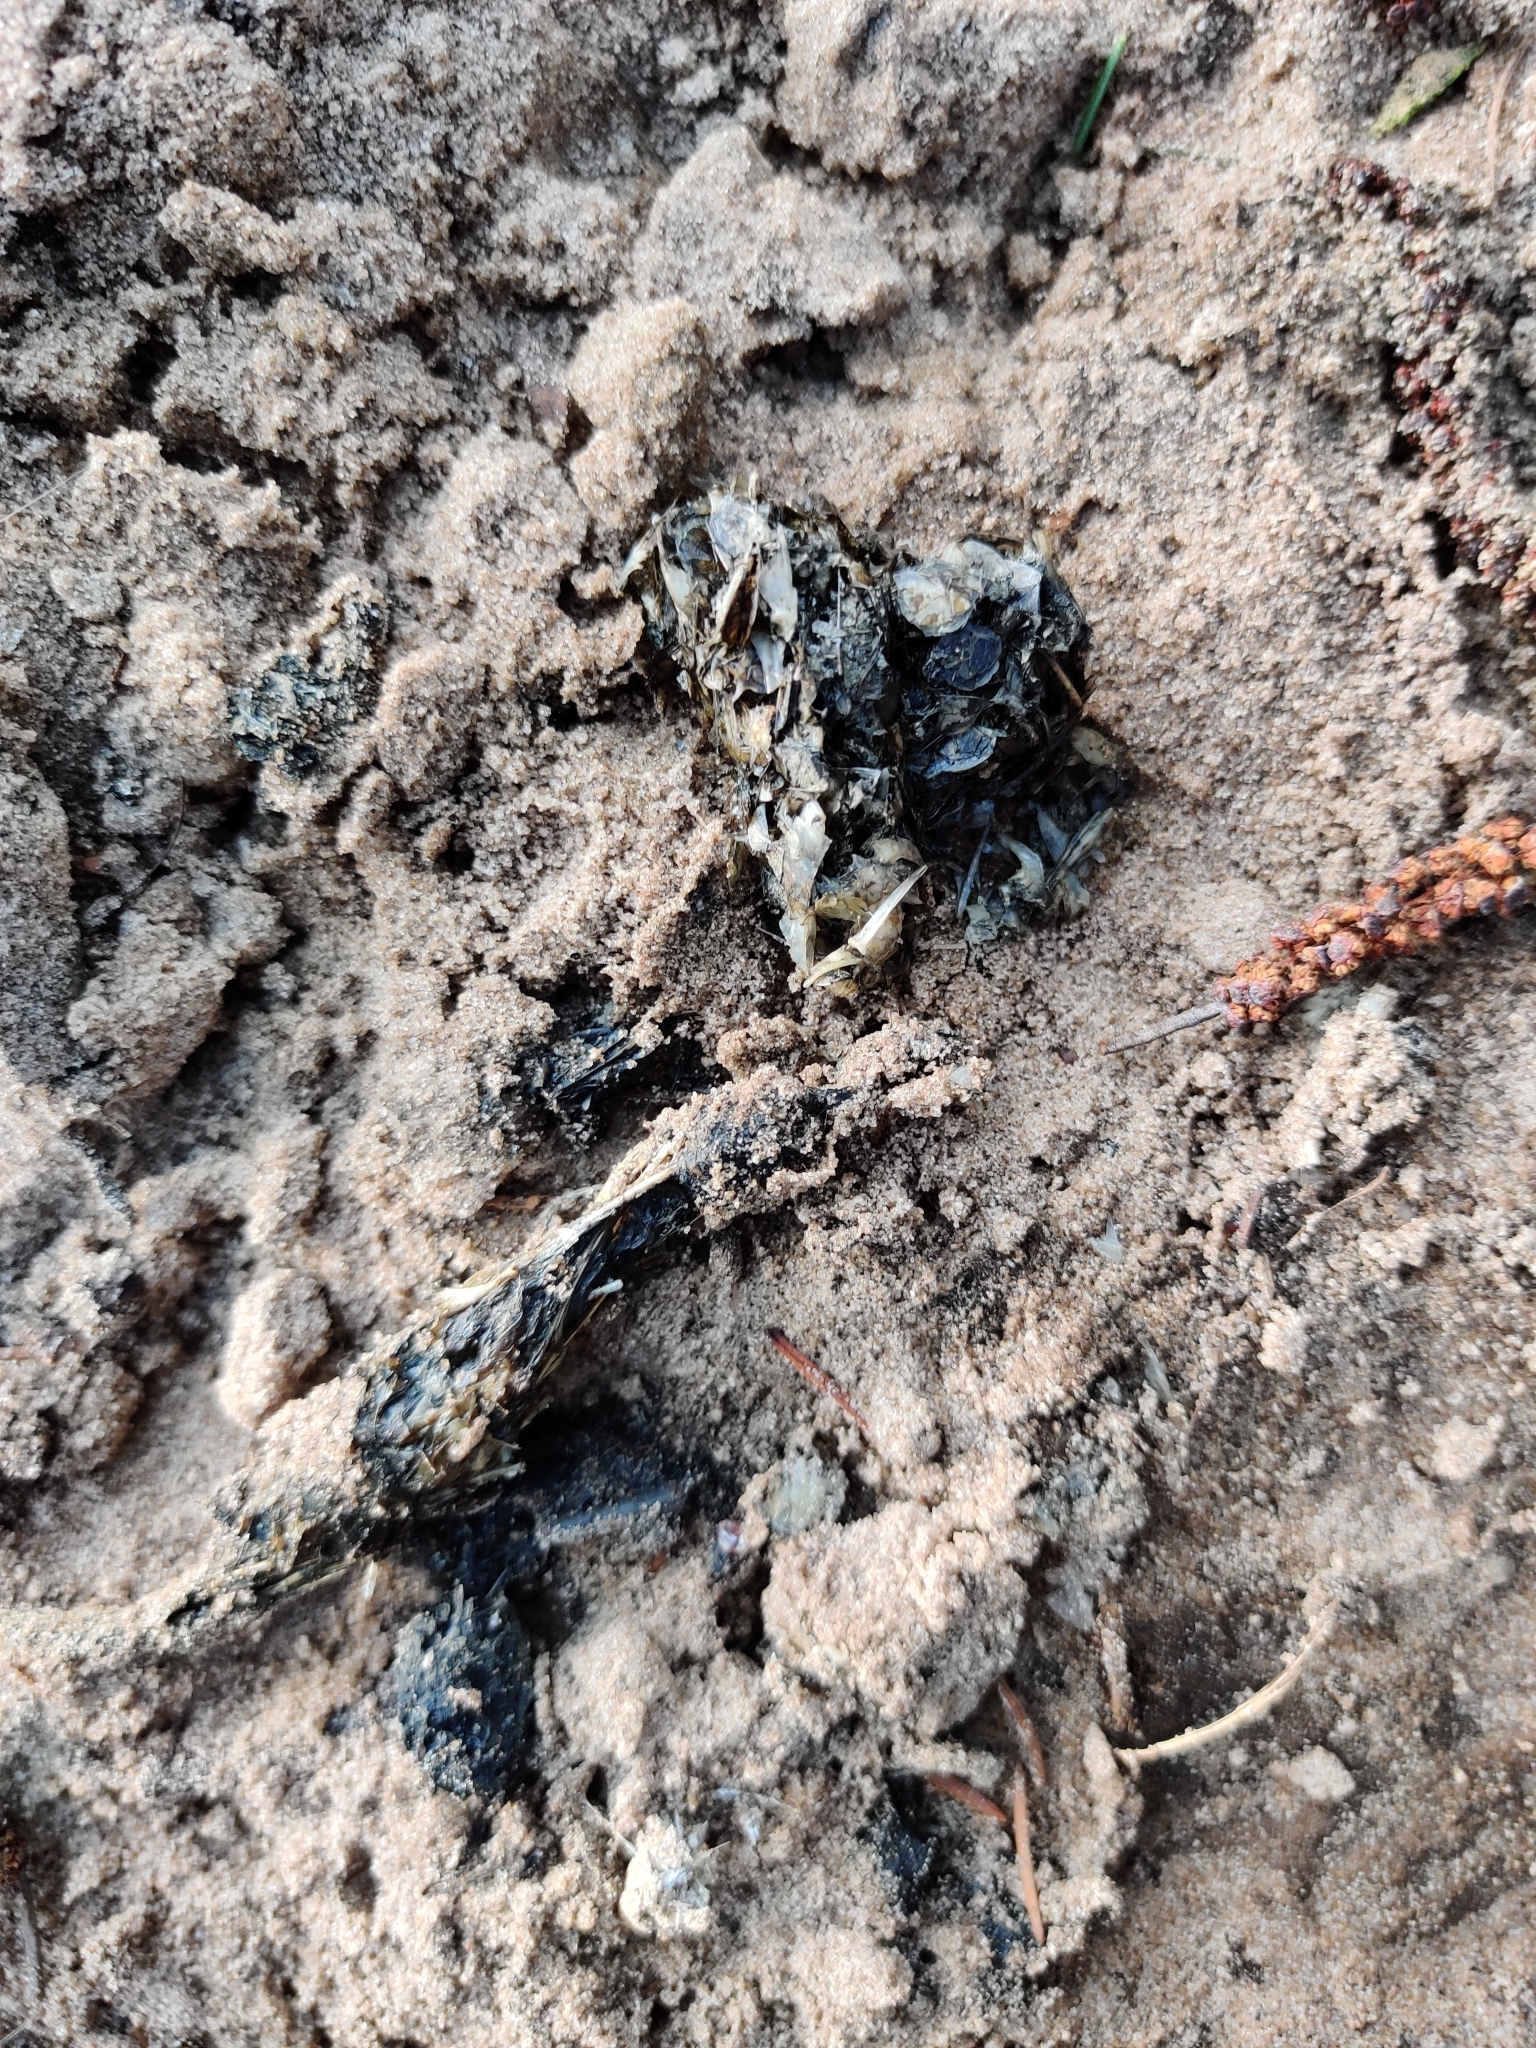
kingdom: Animalia
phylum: Chordata
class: Mammalia
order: Carnivora
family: Mustelidae
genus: Lutra
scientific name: Lutra lutra
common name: European otter
